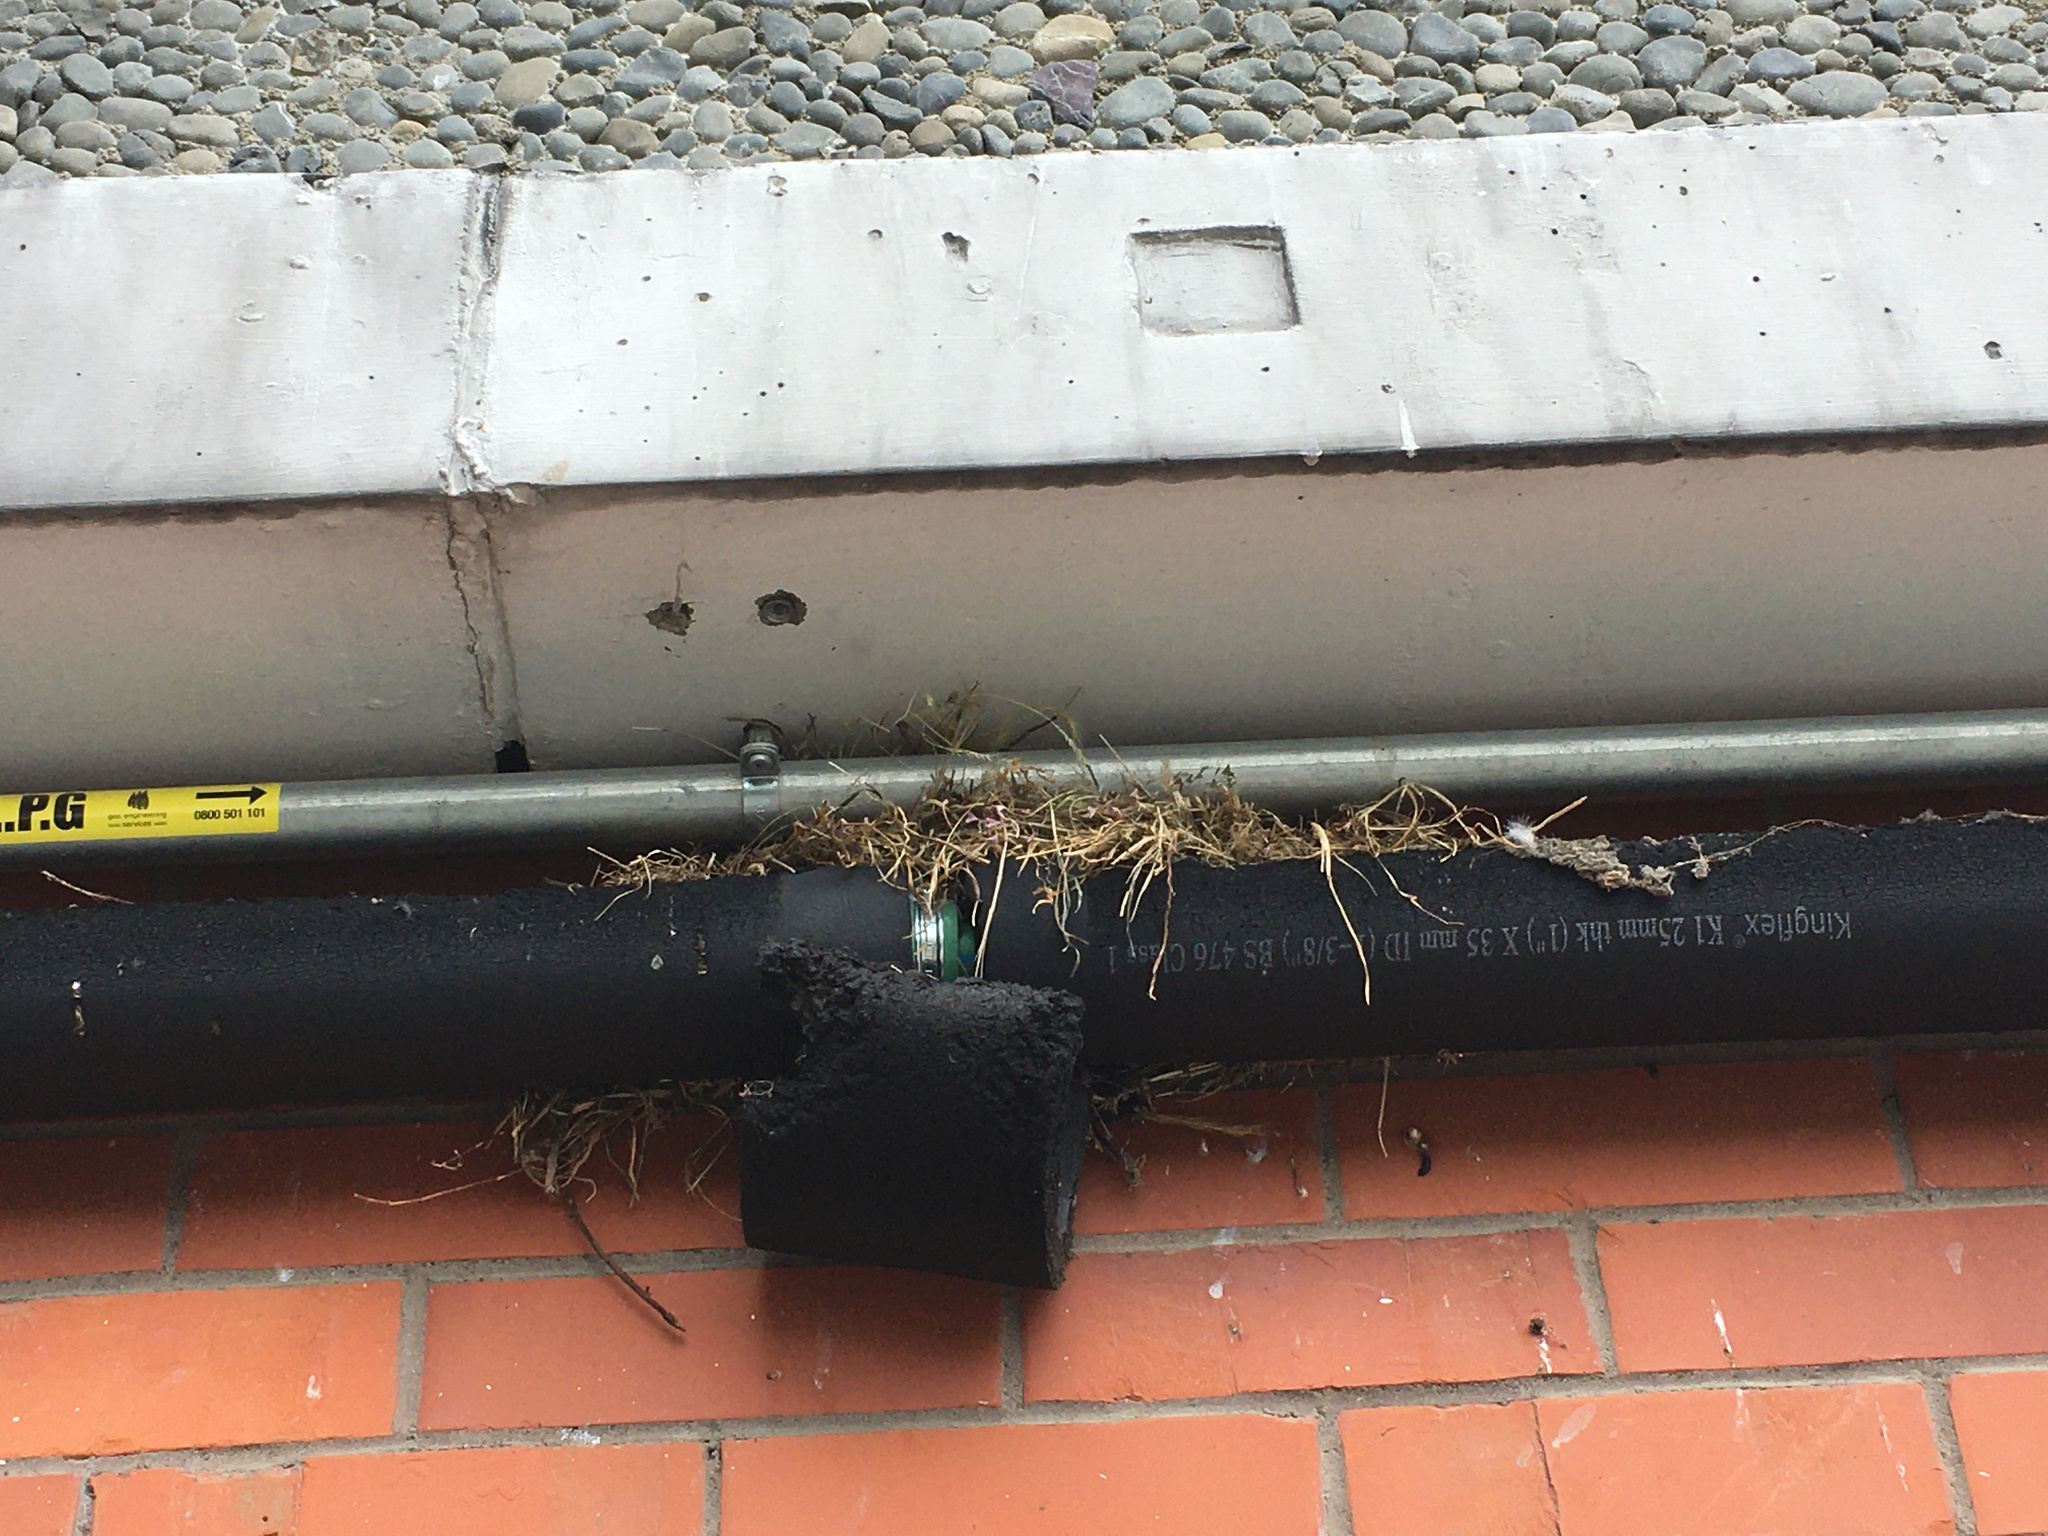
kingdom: Animalia
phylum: Chordata
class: Aves
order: Passeriformes
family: Passeridae
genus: Passer
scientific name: Passer domesticus
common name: House sparrow
